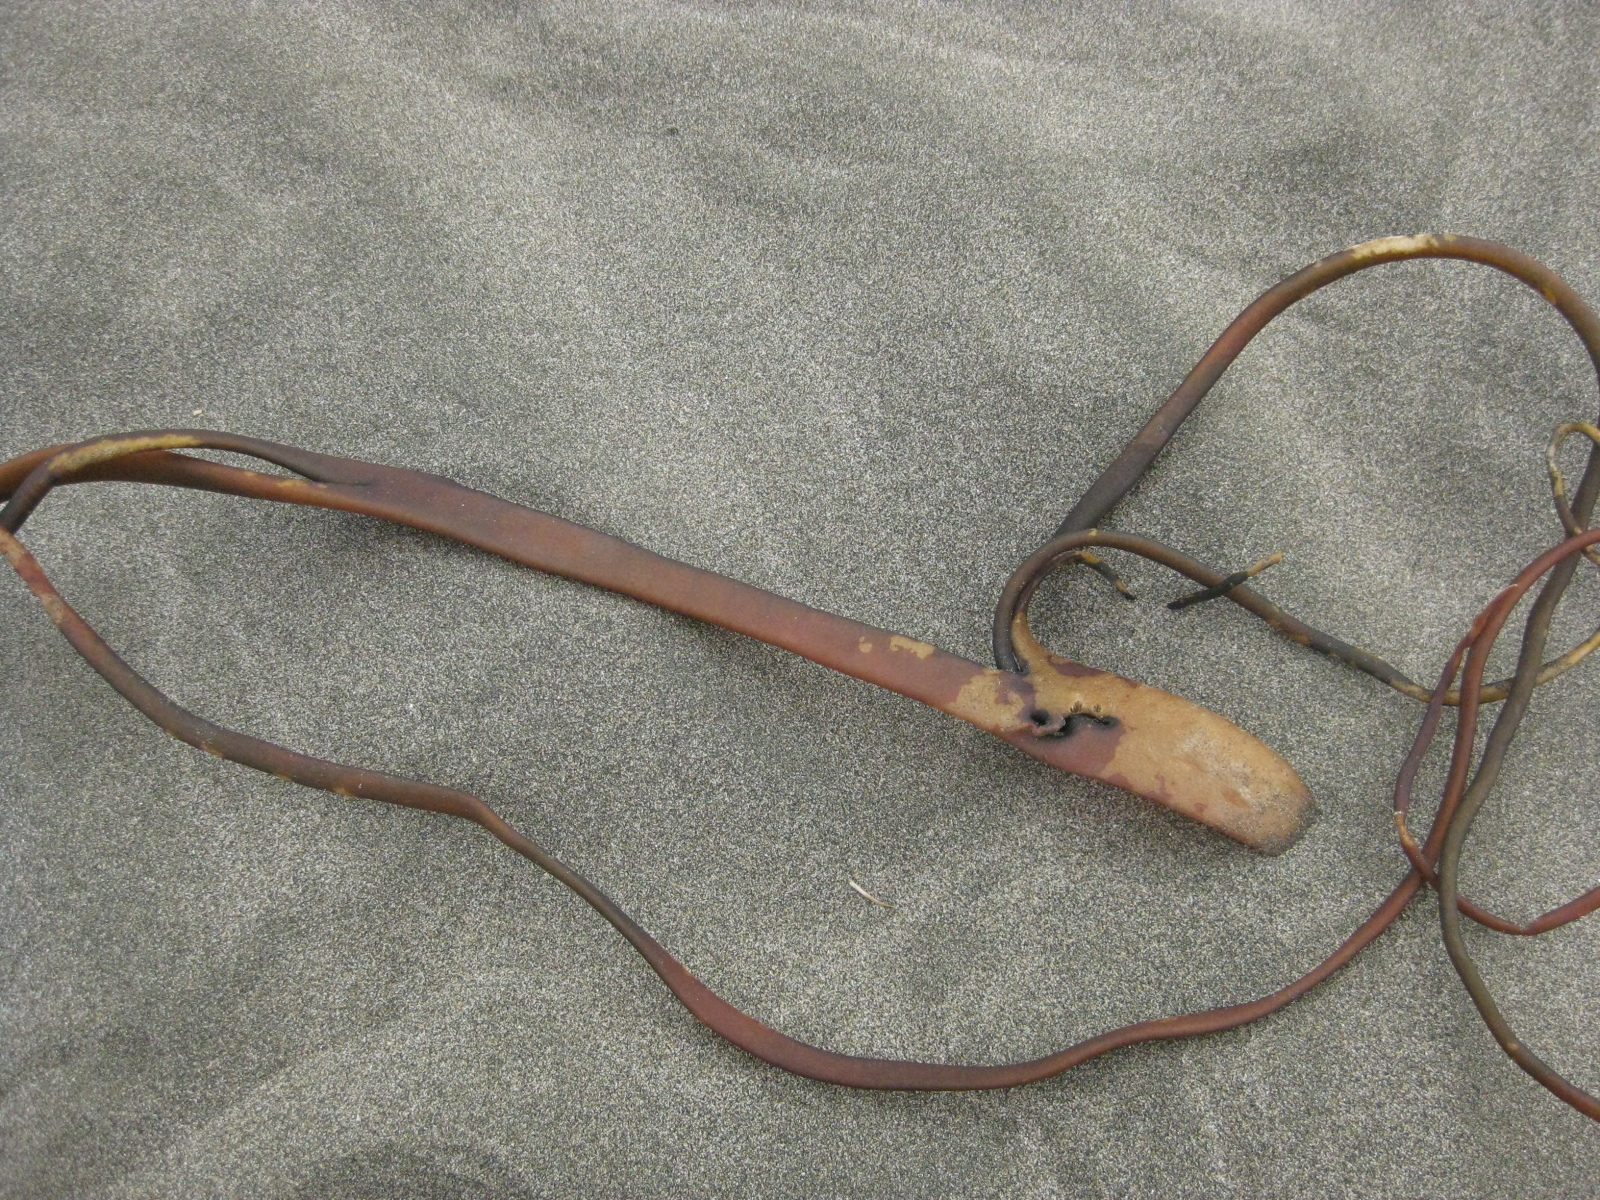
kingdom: Chromista
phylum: Ochrophyta
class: Phaeophyceae
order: Fucales
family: Durvillaeaceae
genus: Durvillaea
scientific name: Durvillaea antarctica
